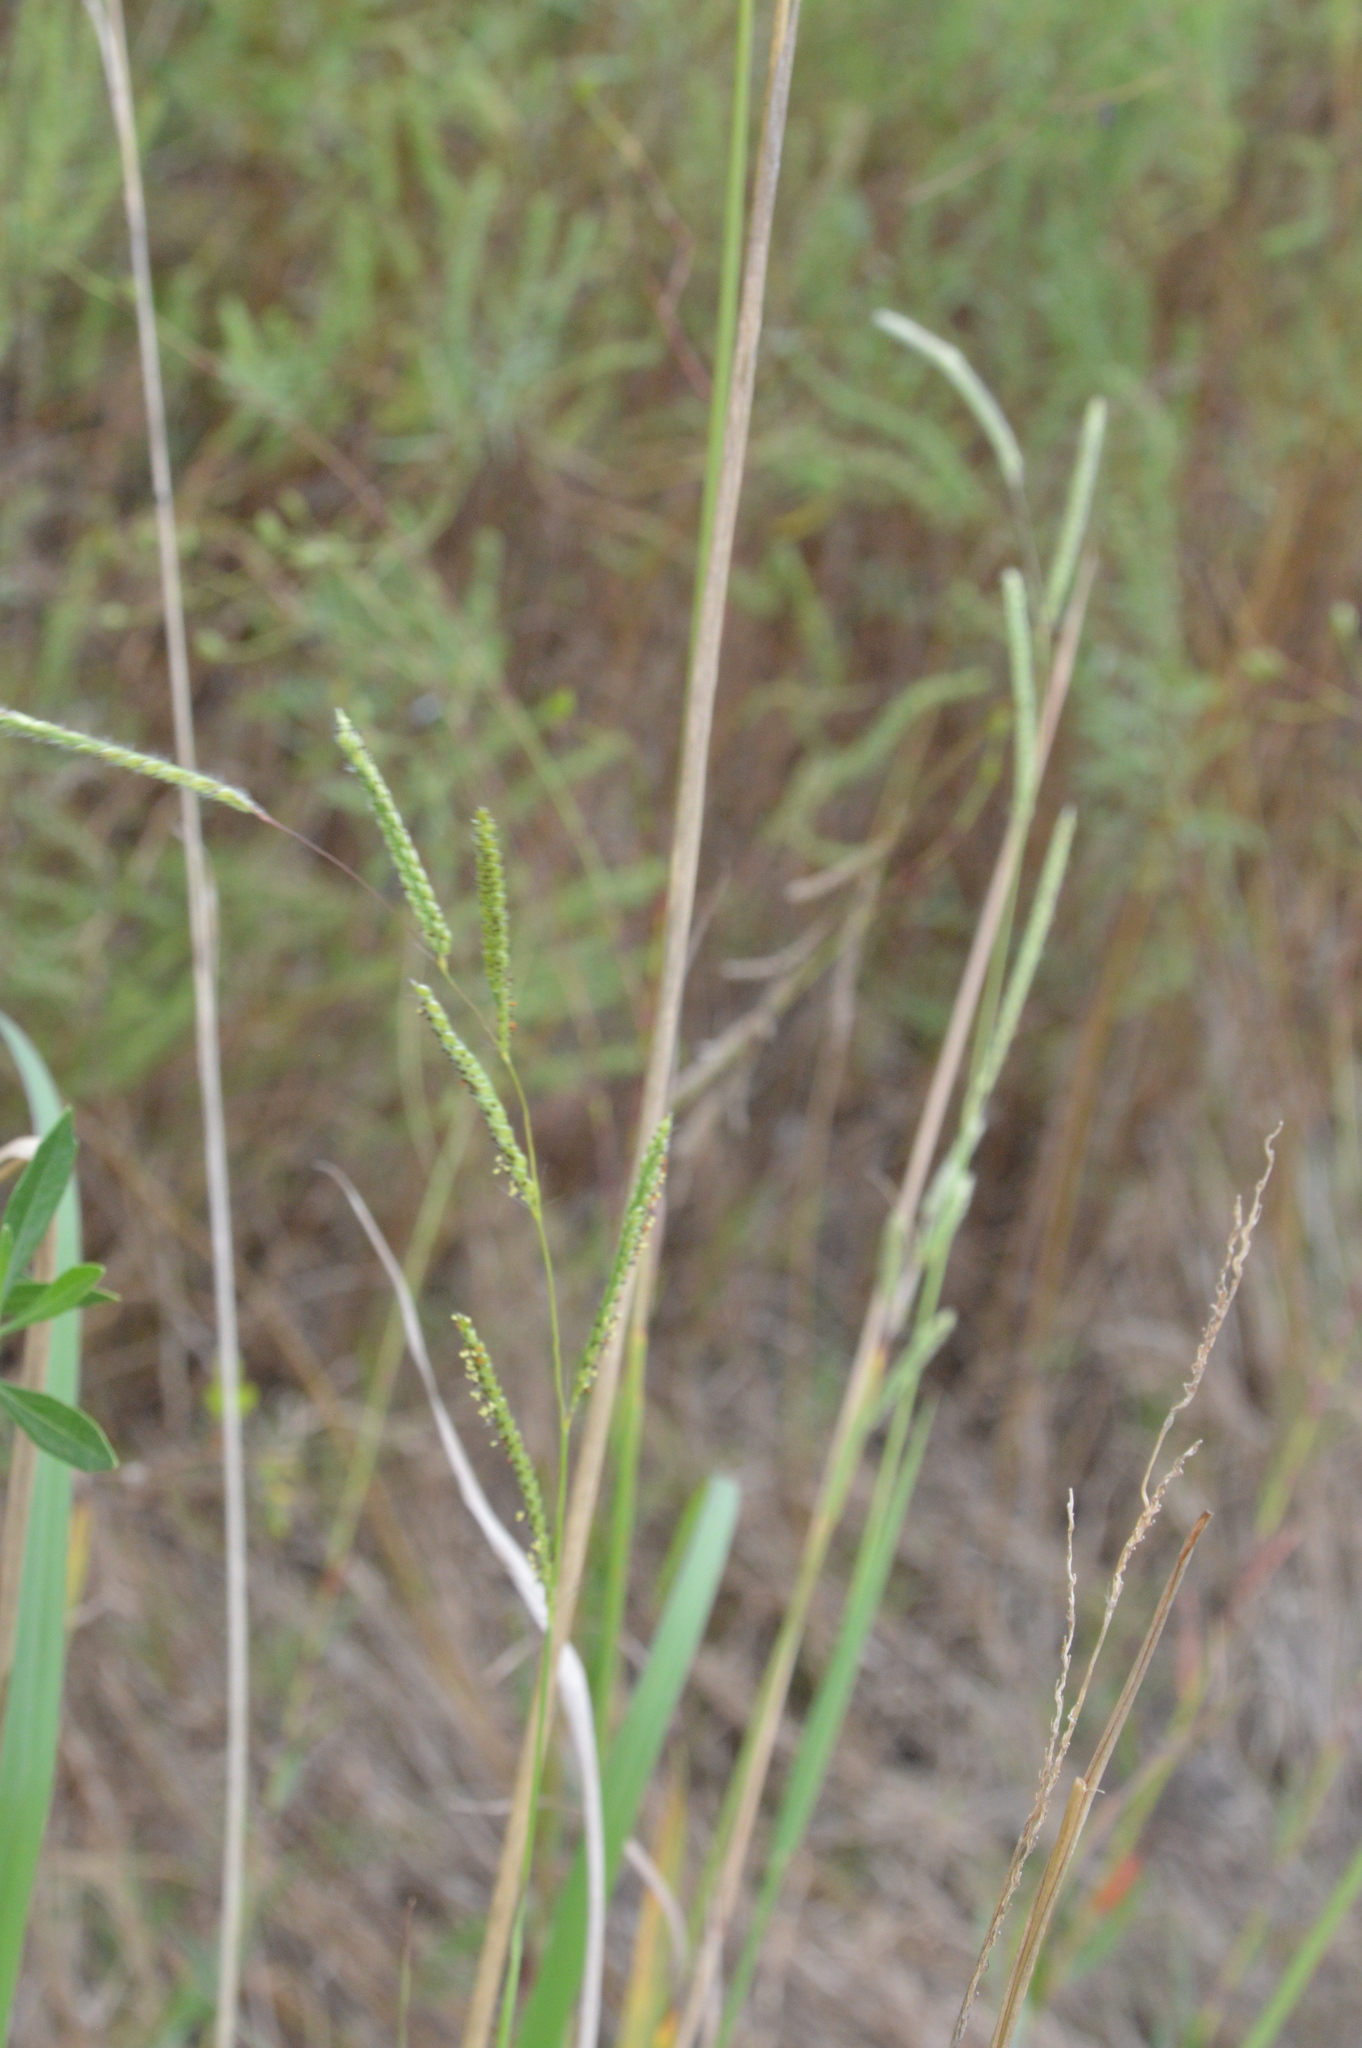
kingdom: Plantae
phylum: Tracheophyta
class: Liliopsida
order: Poales
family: Poaceae
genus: Paspalum
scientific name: Paspalum urvillei
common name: Vasey's grass
